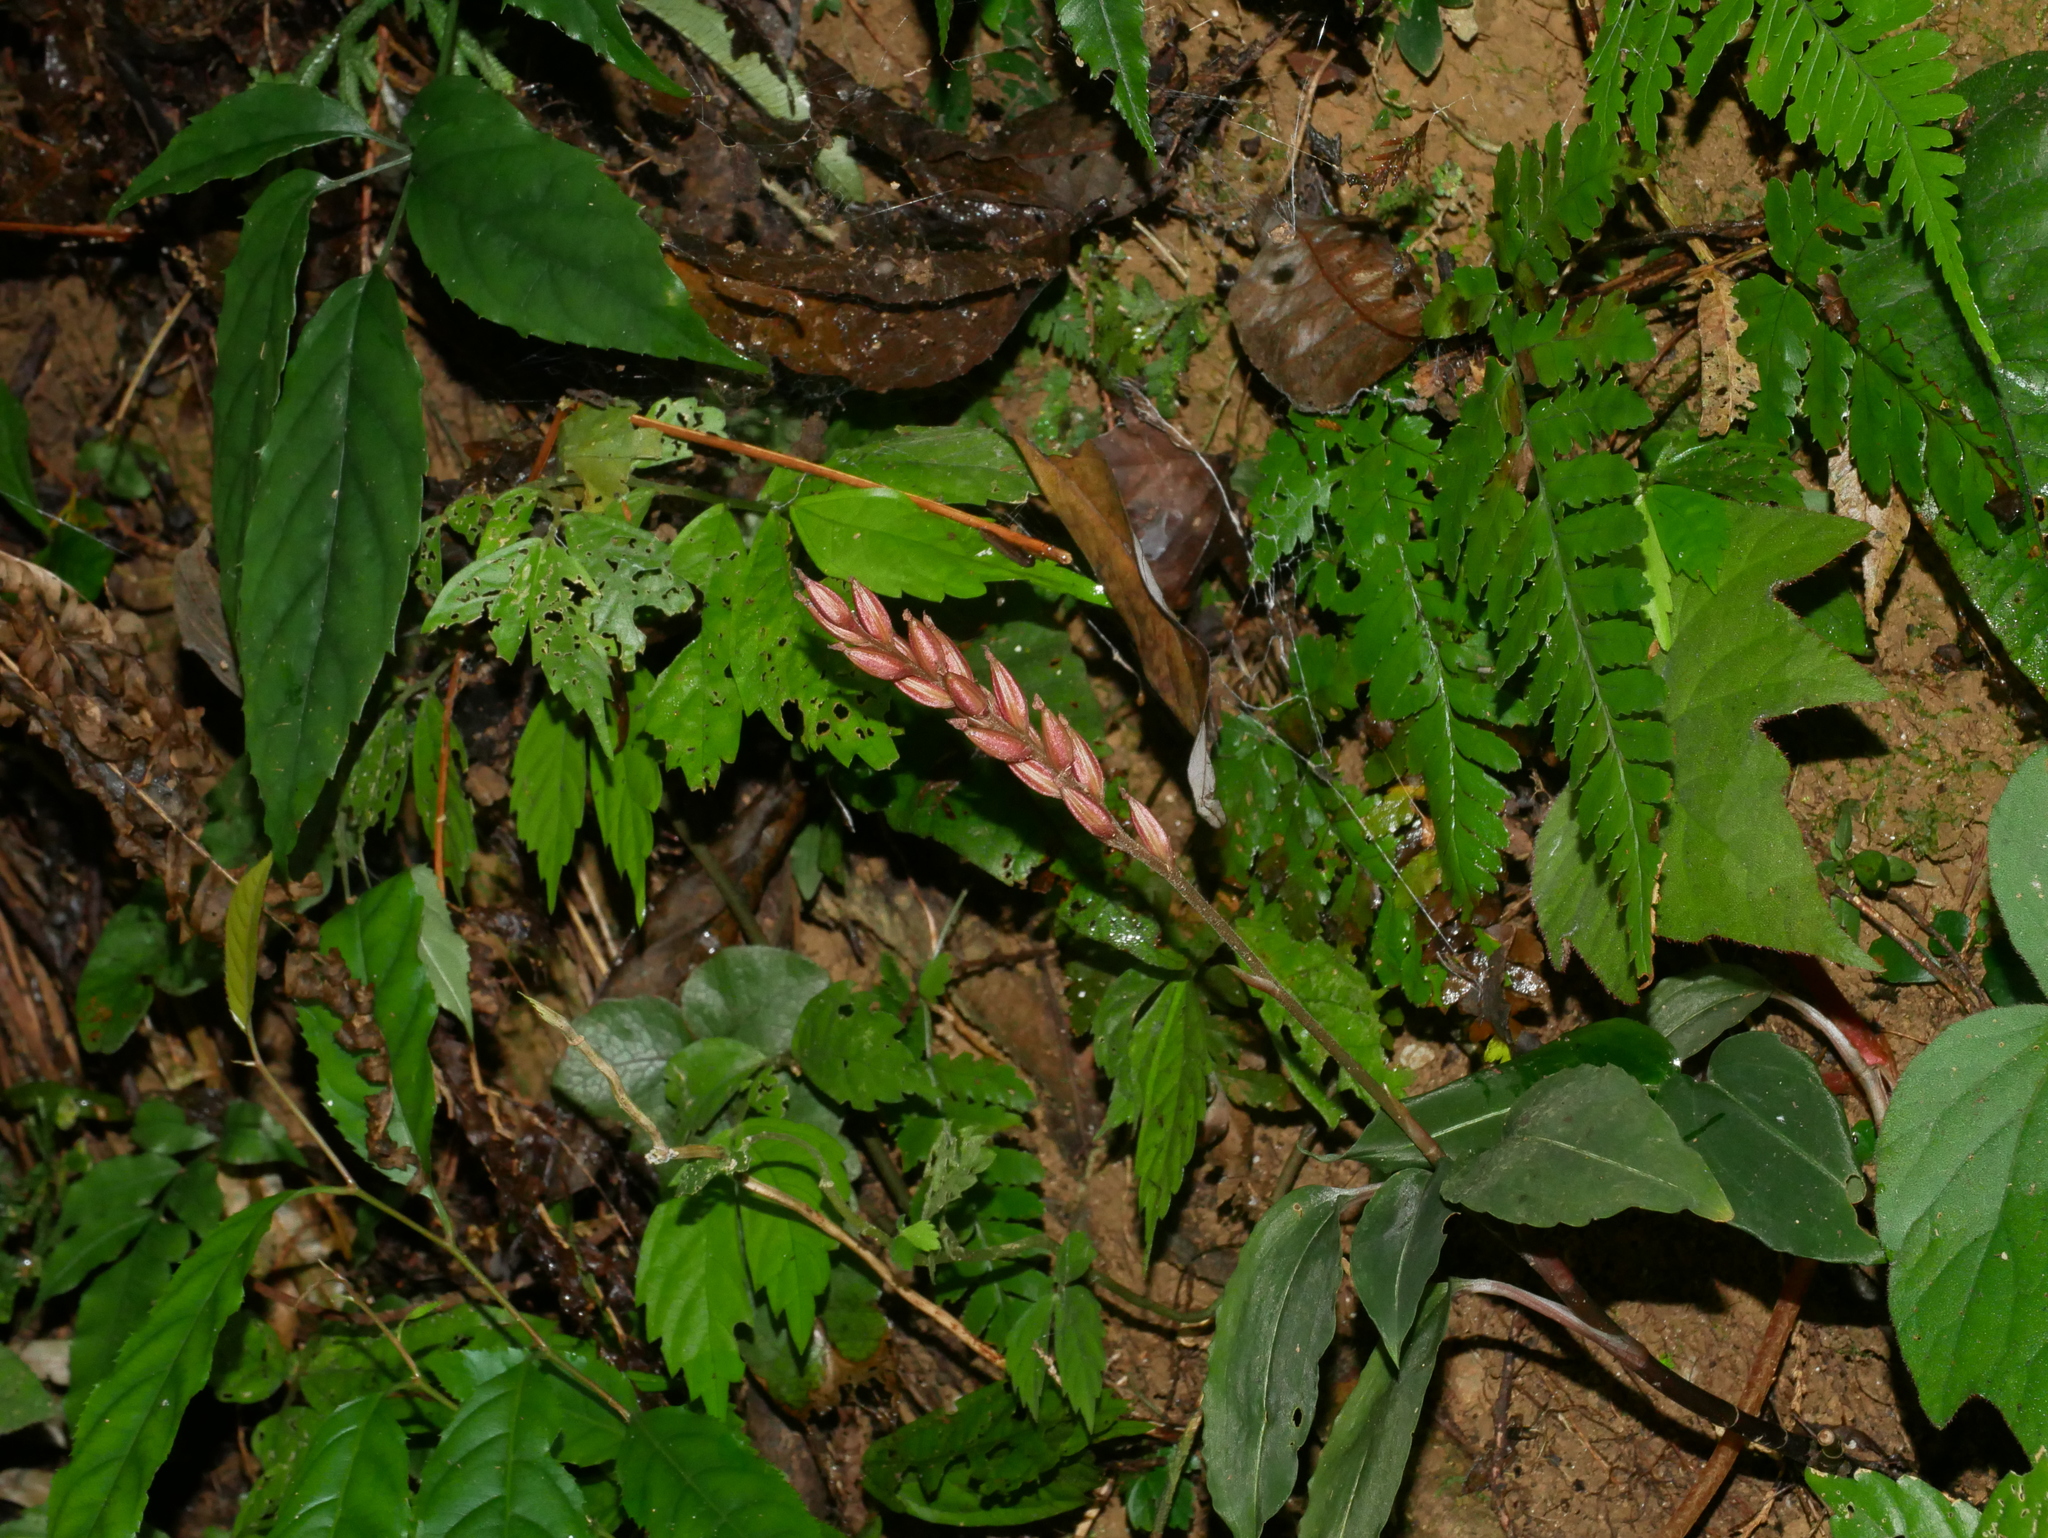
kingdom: Plantae
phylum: Tracheophyta
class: Liliopsida
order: Asparagales
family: Orchidaceae
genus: Rhomboda
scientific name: Rhomboda yakusimensis
